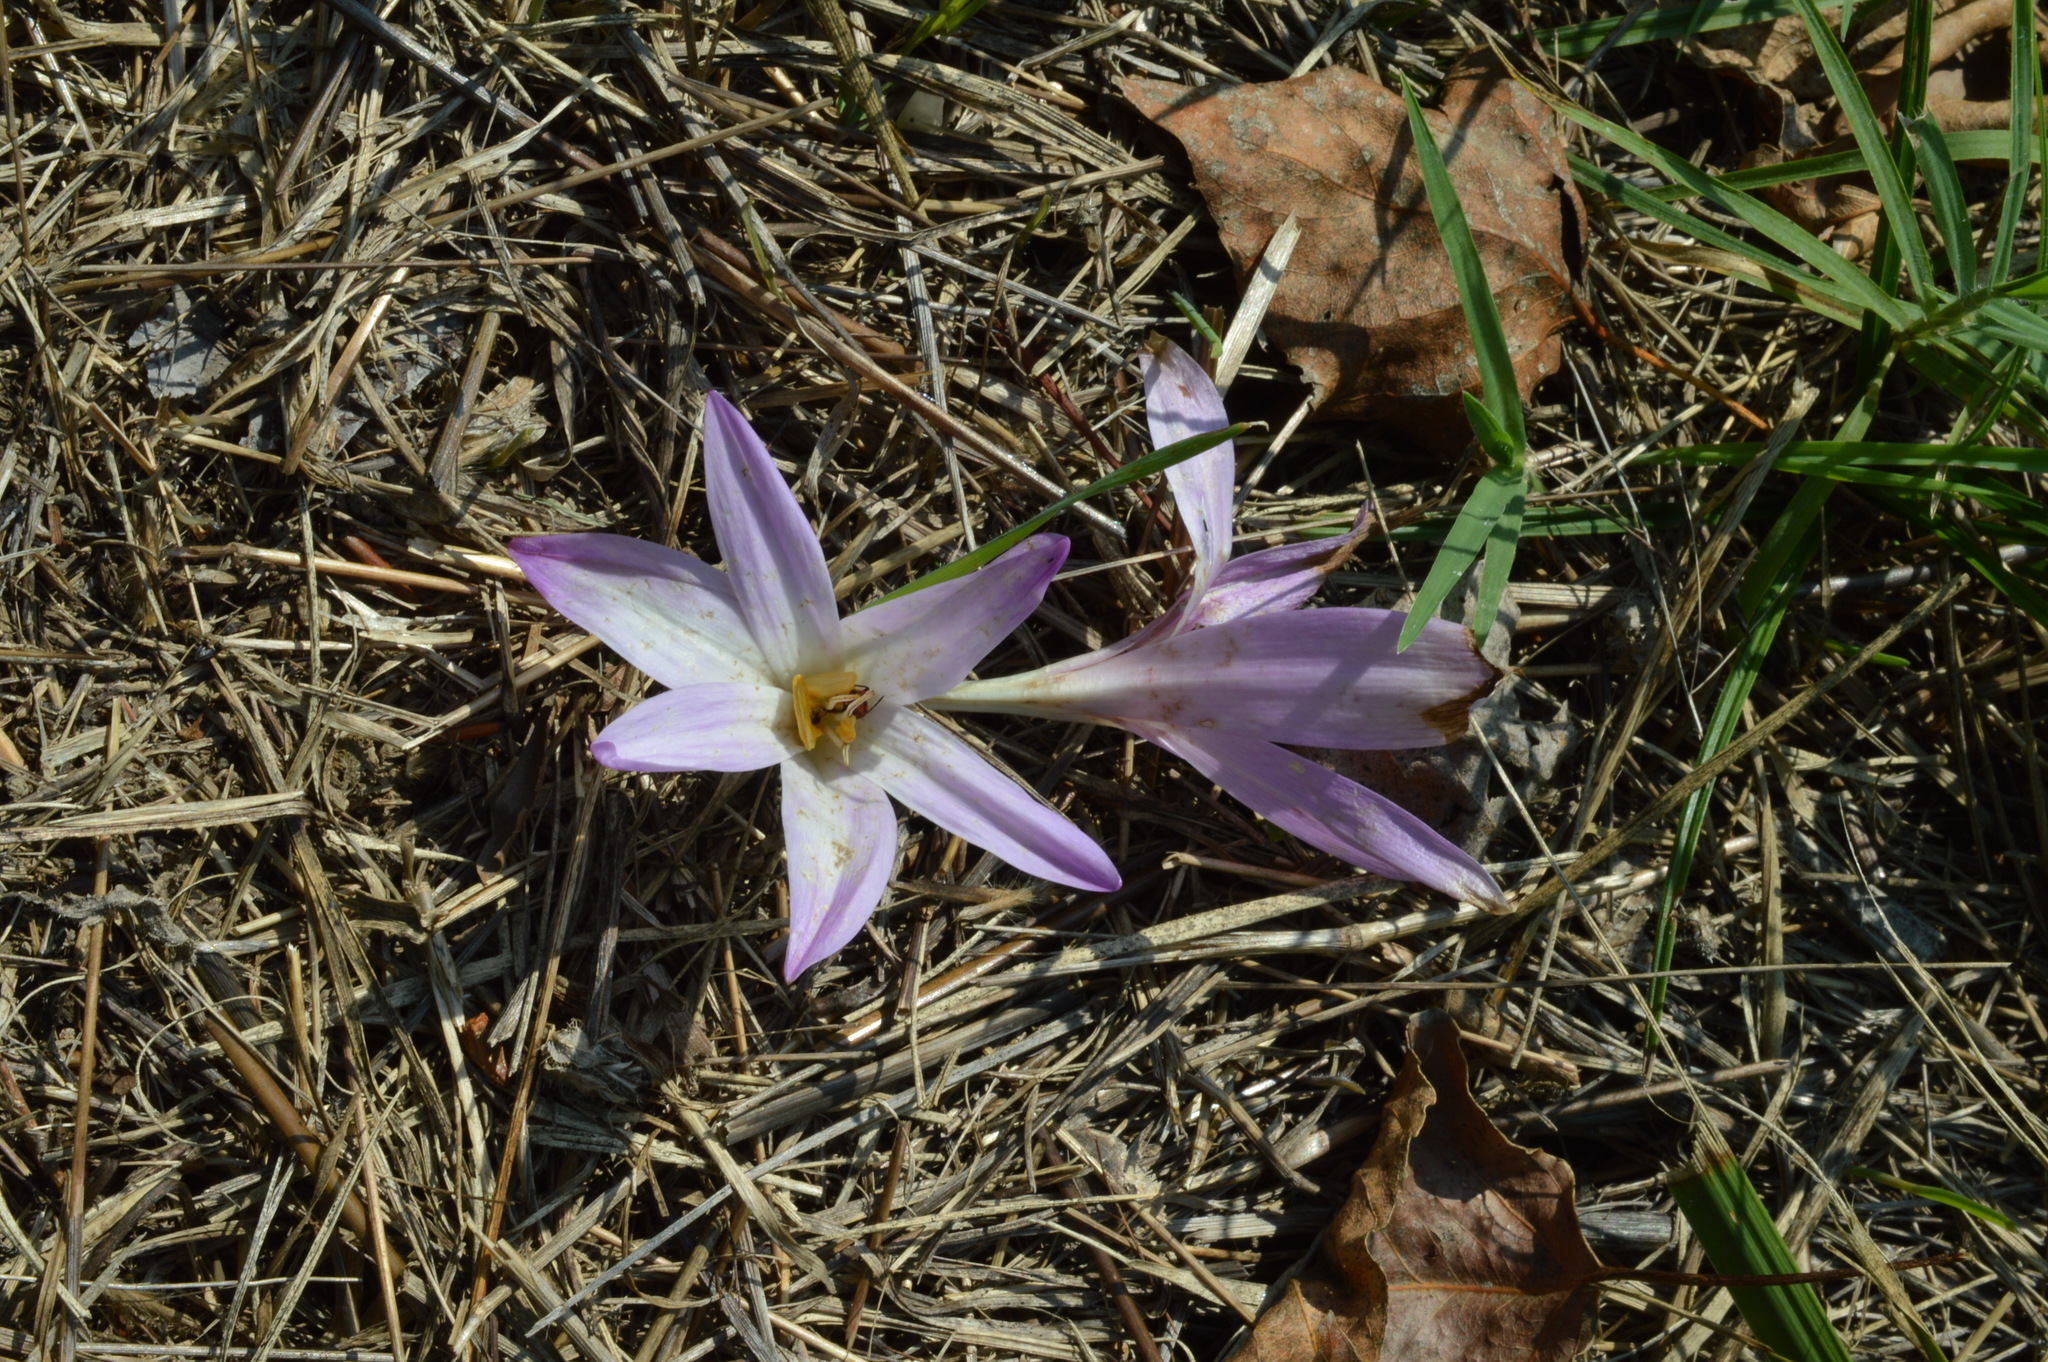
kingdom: Plantae
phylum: Tracheophyta
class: Liliopsida
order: Liliales
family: Colchicaceae
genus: Colchicum
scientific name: Colchicum autumnale
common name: Autumn crocus
